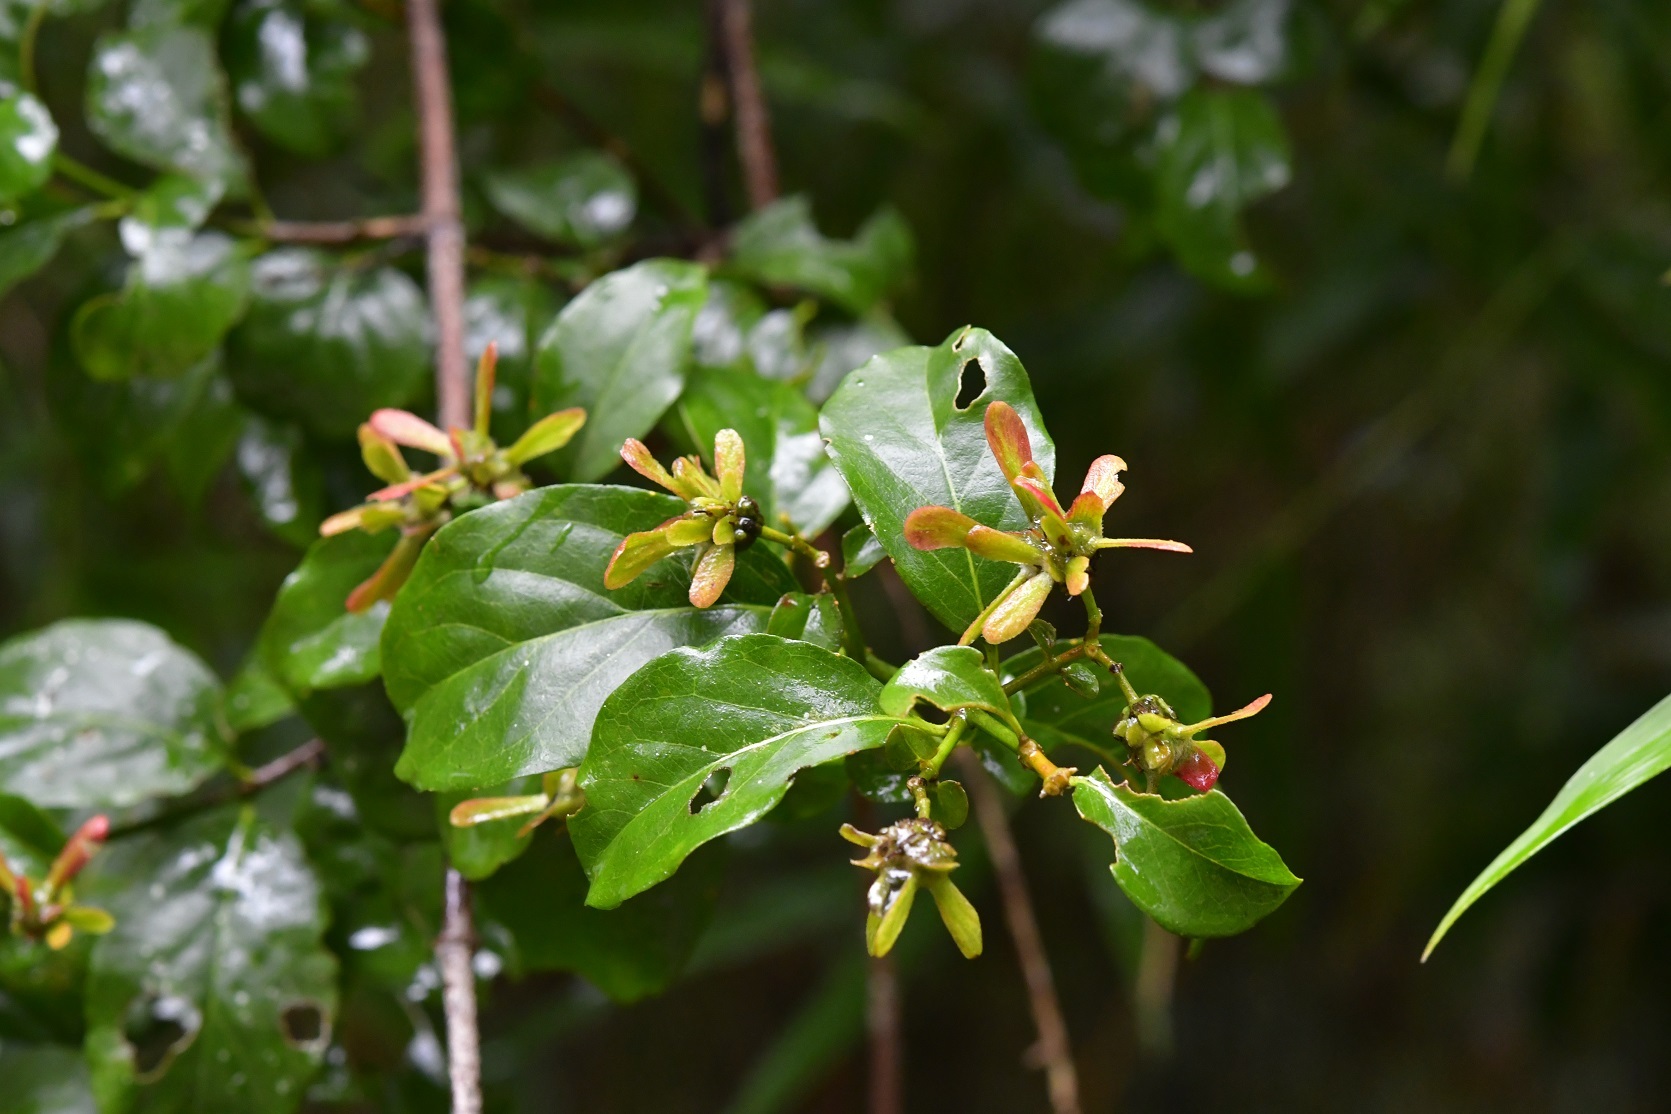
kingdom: Plantae
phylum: Tracheophyta
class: Magnoliopsida
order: Malpighiales
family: Malpighiaceae
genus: Tetrapterys
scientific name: Tetrapterys schiedeana
